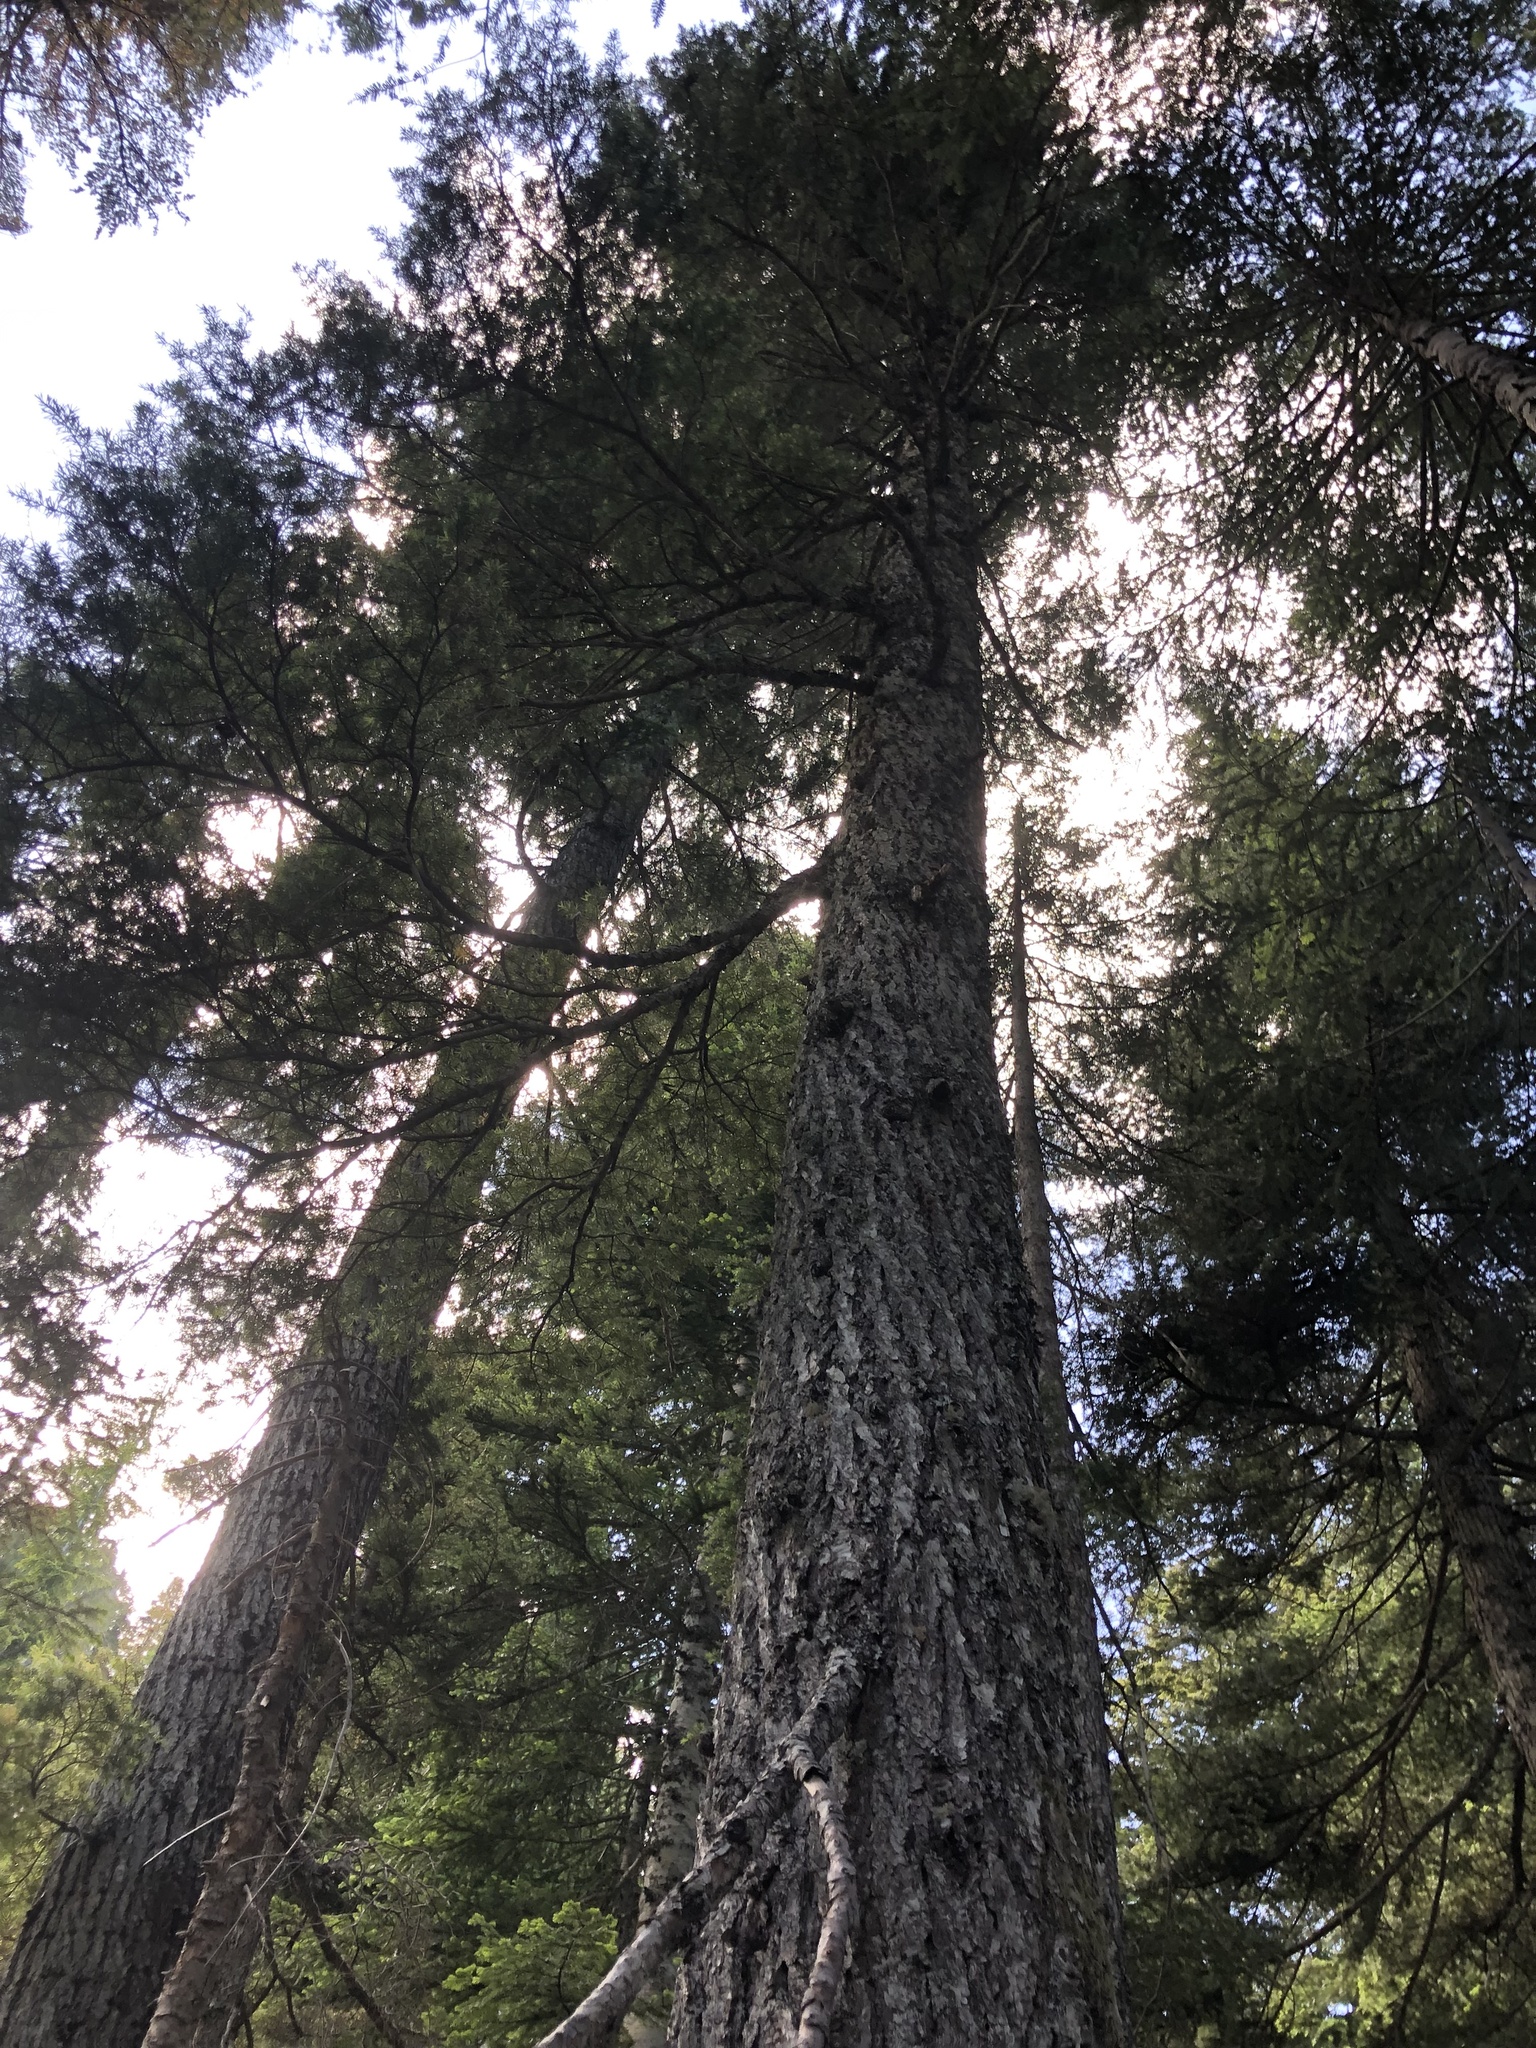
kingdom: Plantae
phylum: Tracheophyta
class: Pinopsida
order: Pinales
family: Pinaceae
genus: Tsuga
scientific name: Tsuga mertensiana
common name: Mountain hemlock
